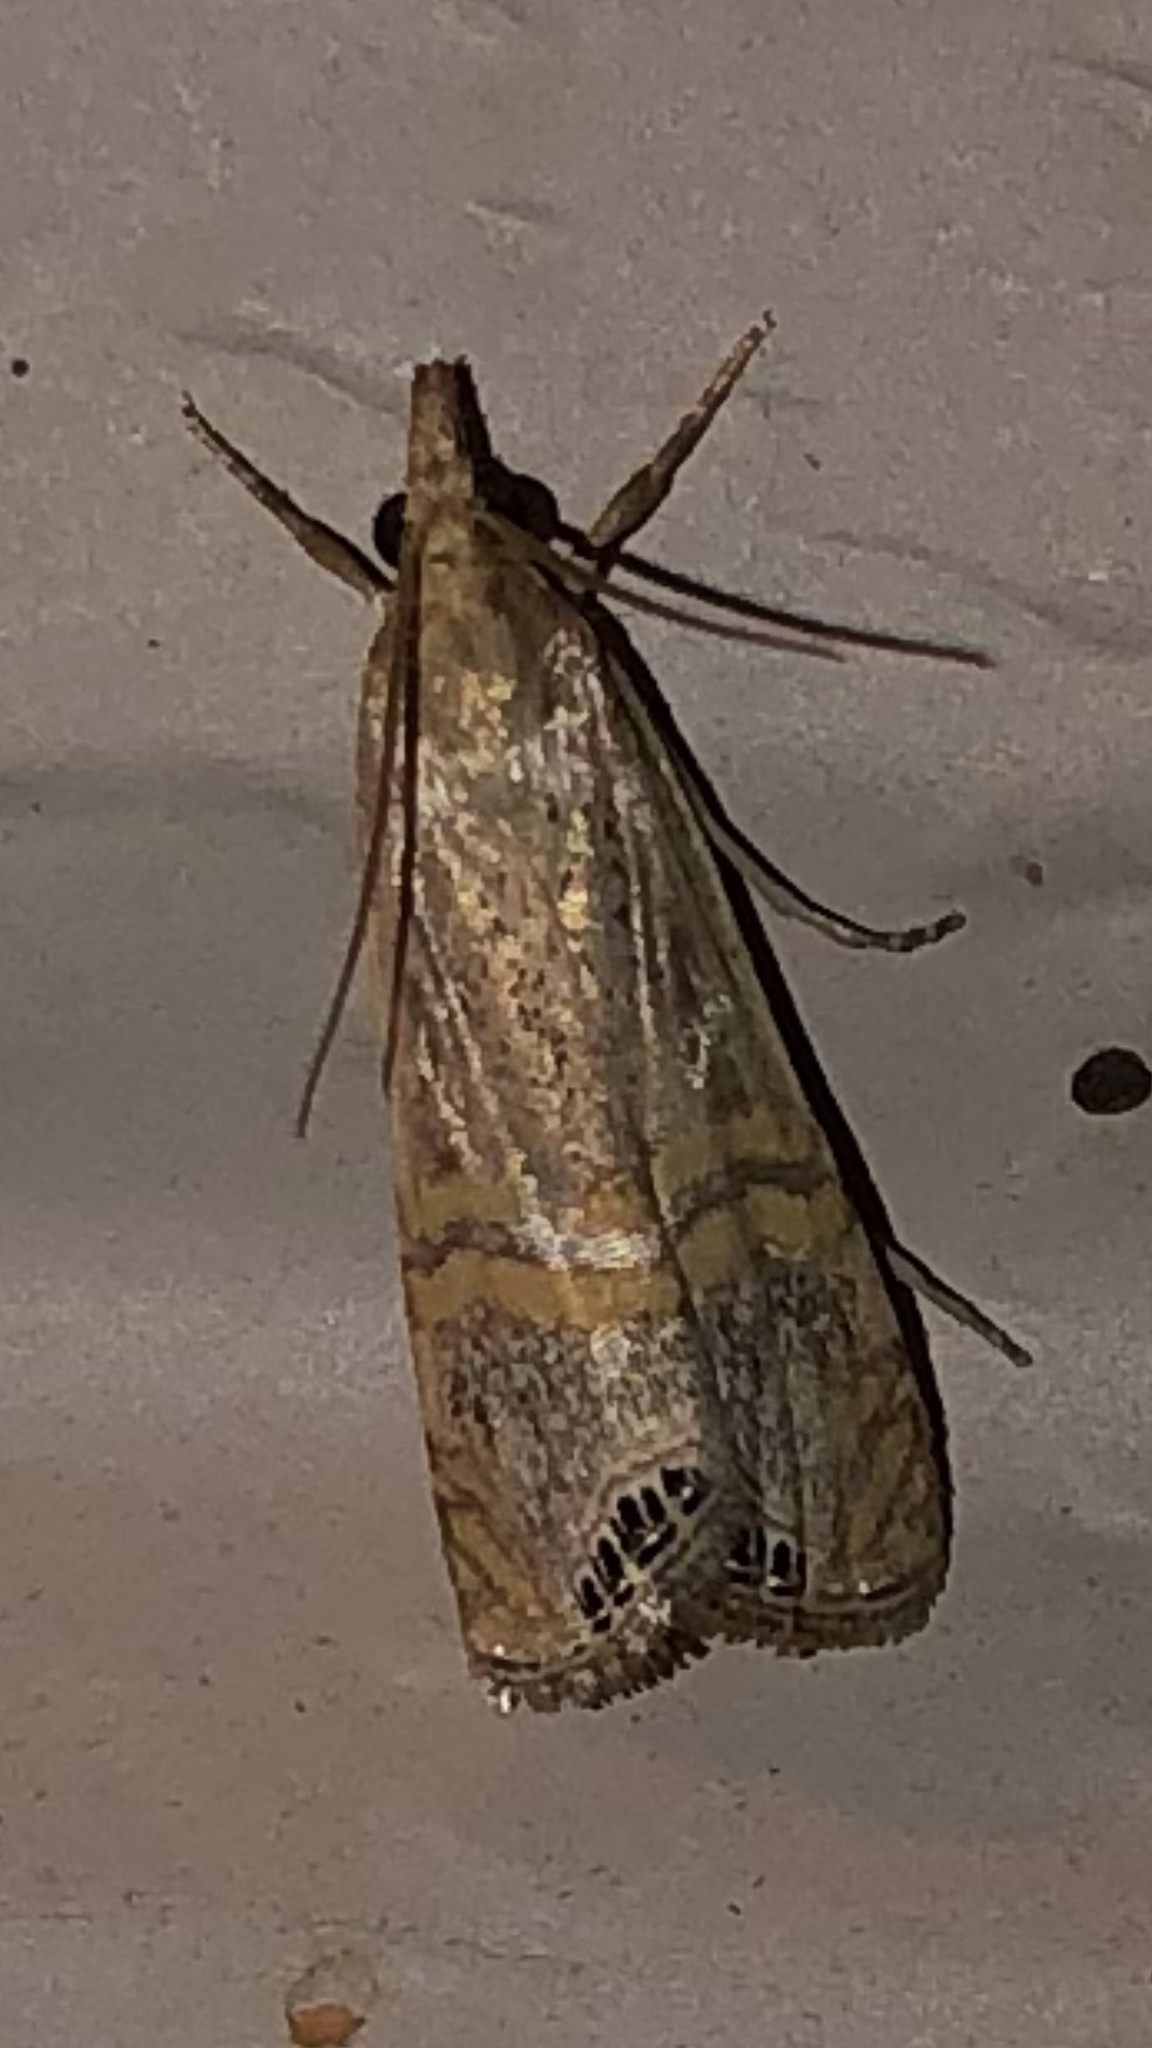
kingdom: Animalia
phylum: Arthropoda
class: Insecta
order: Lepidoptera
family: Crambidae
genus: Euchromius
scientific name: Euchromius ocellea
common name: Necklace veneer moth
